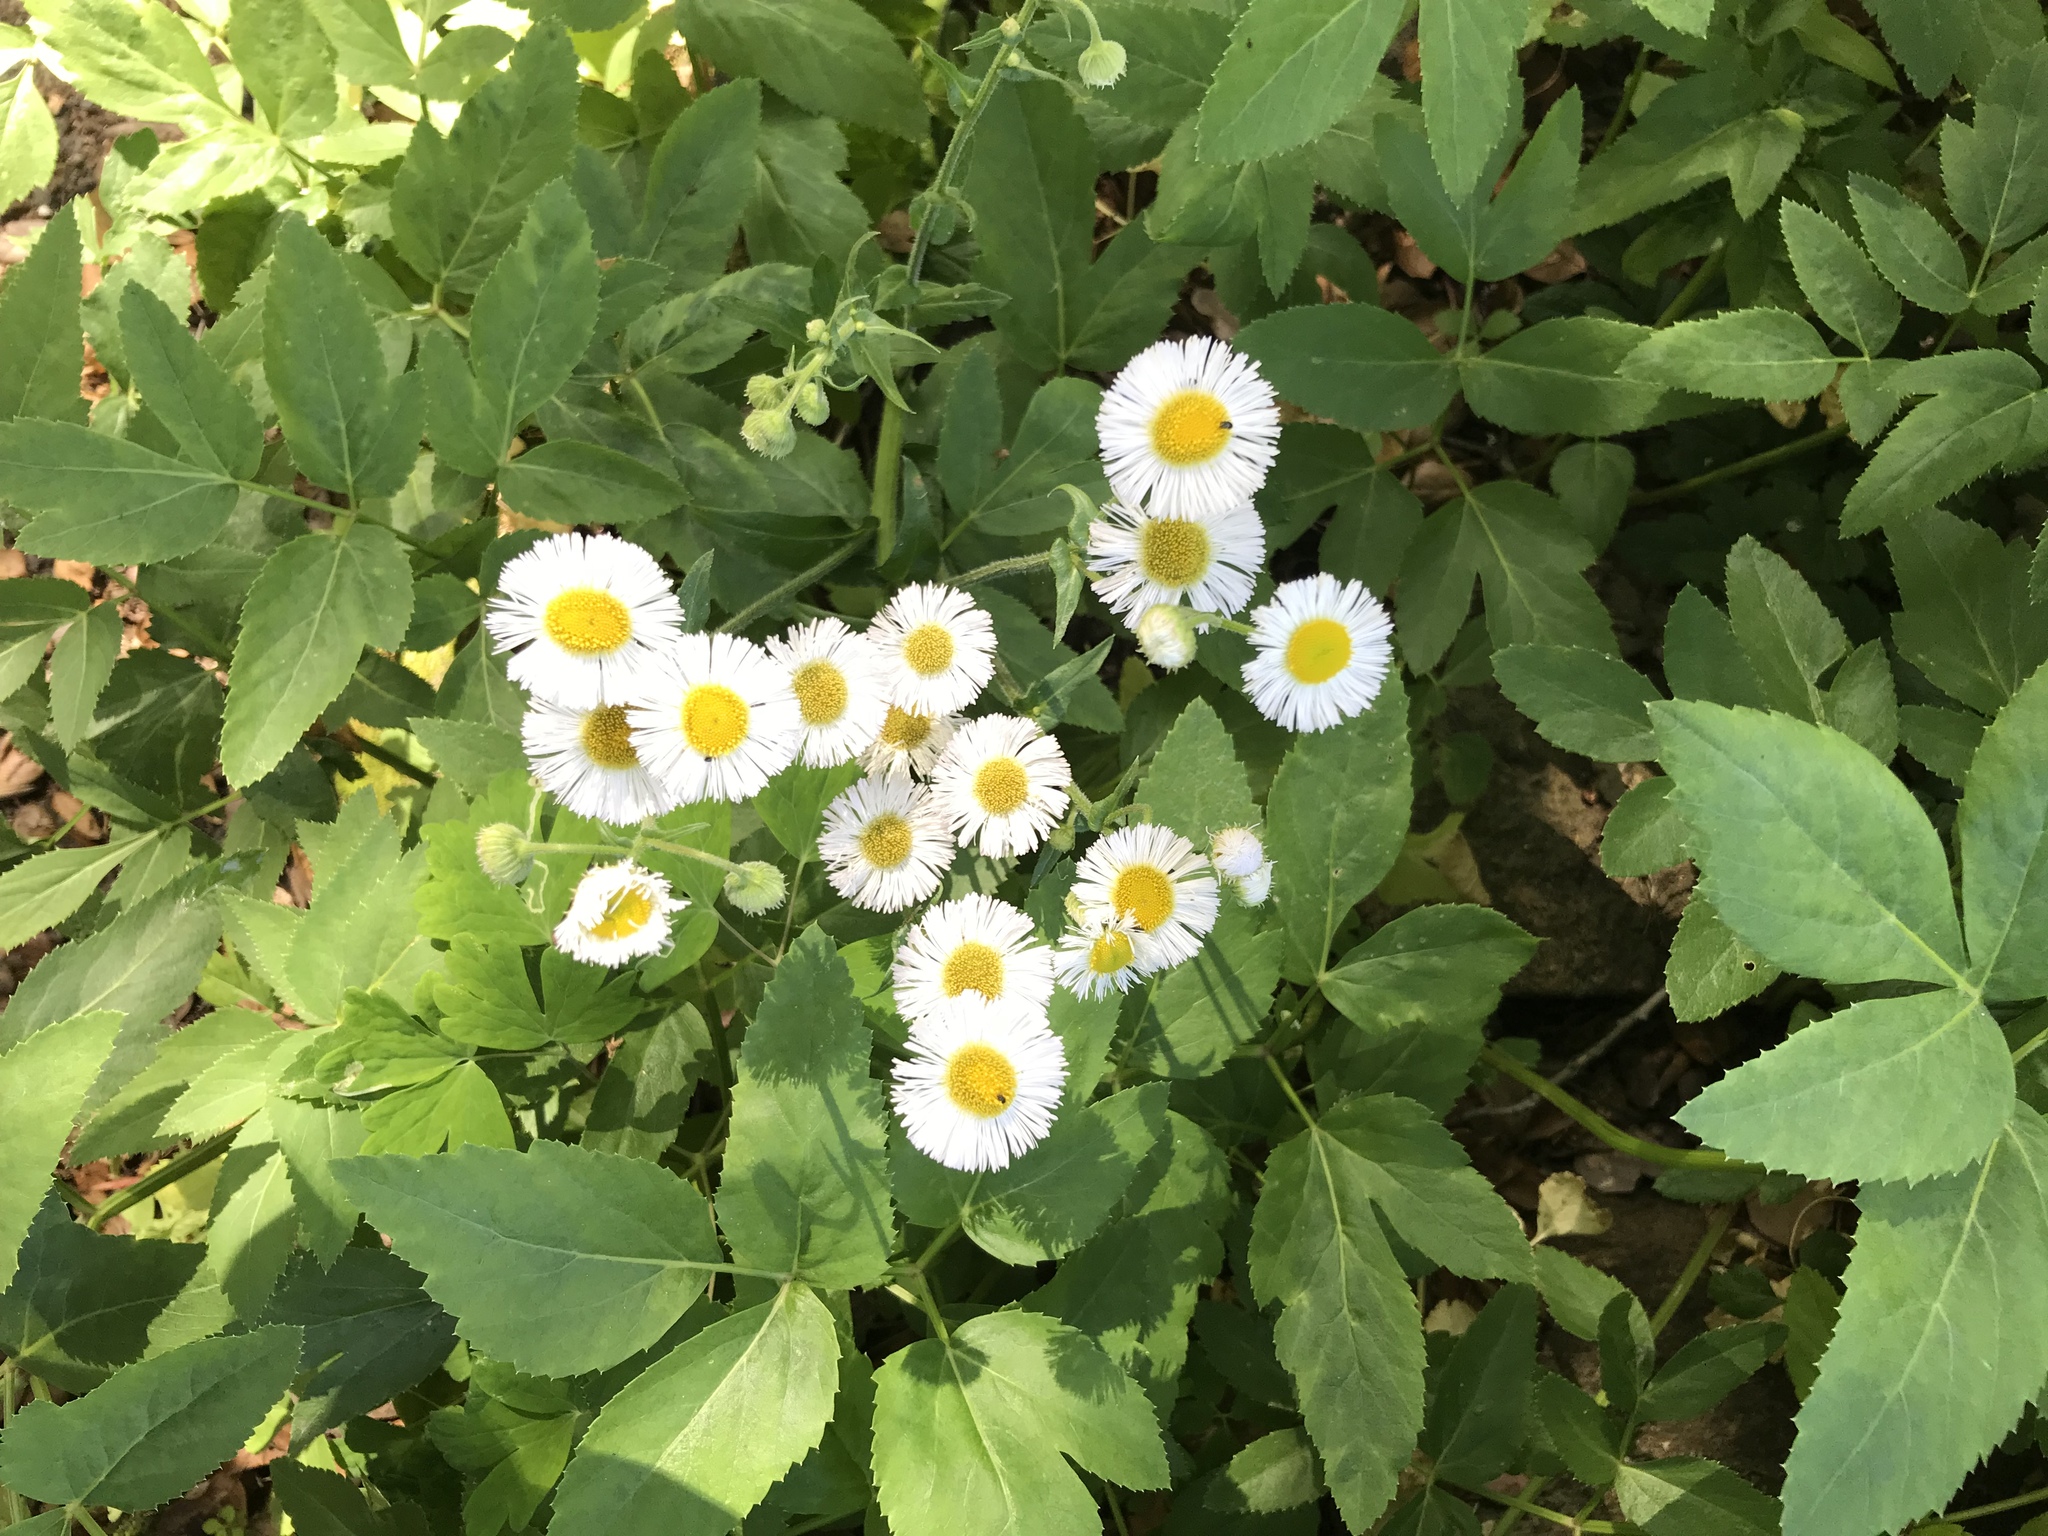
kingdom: Plantae
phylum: Tracheophyta
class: Magnoliopsida
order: Asterales
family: Asteraceae
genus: Erigeron
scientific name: Erigeron philadelphicus
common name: Robin's-plantain
